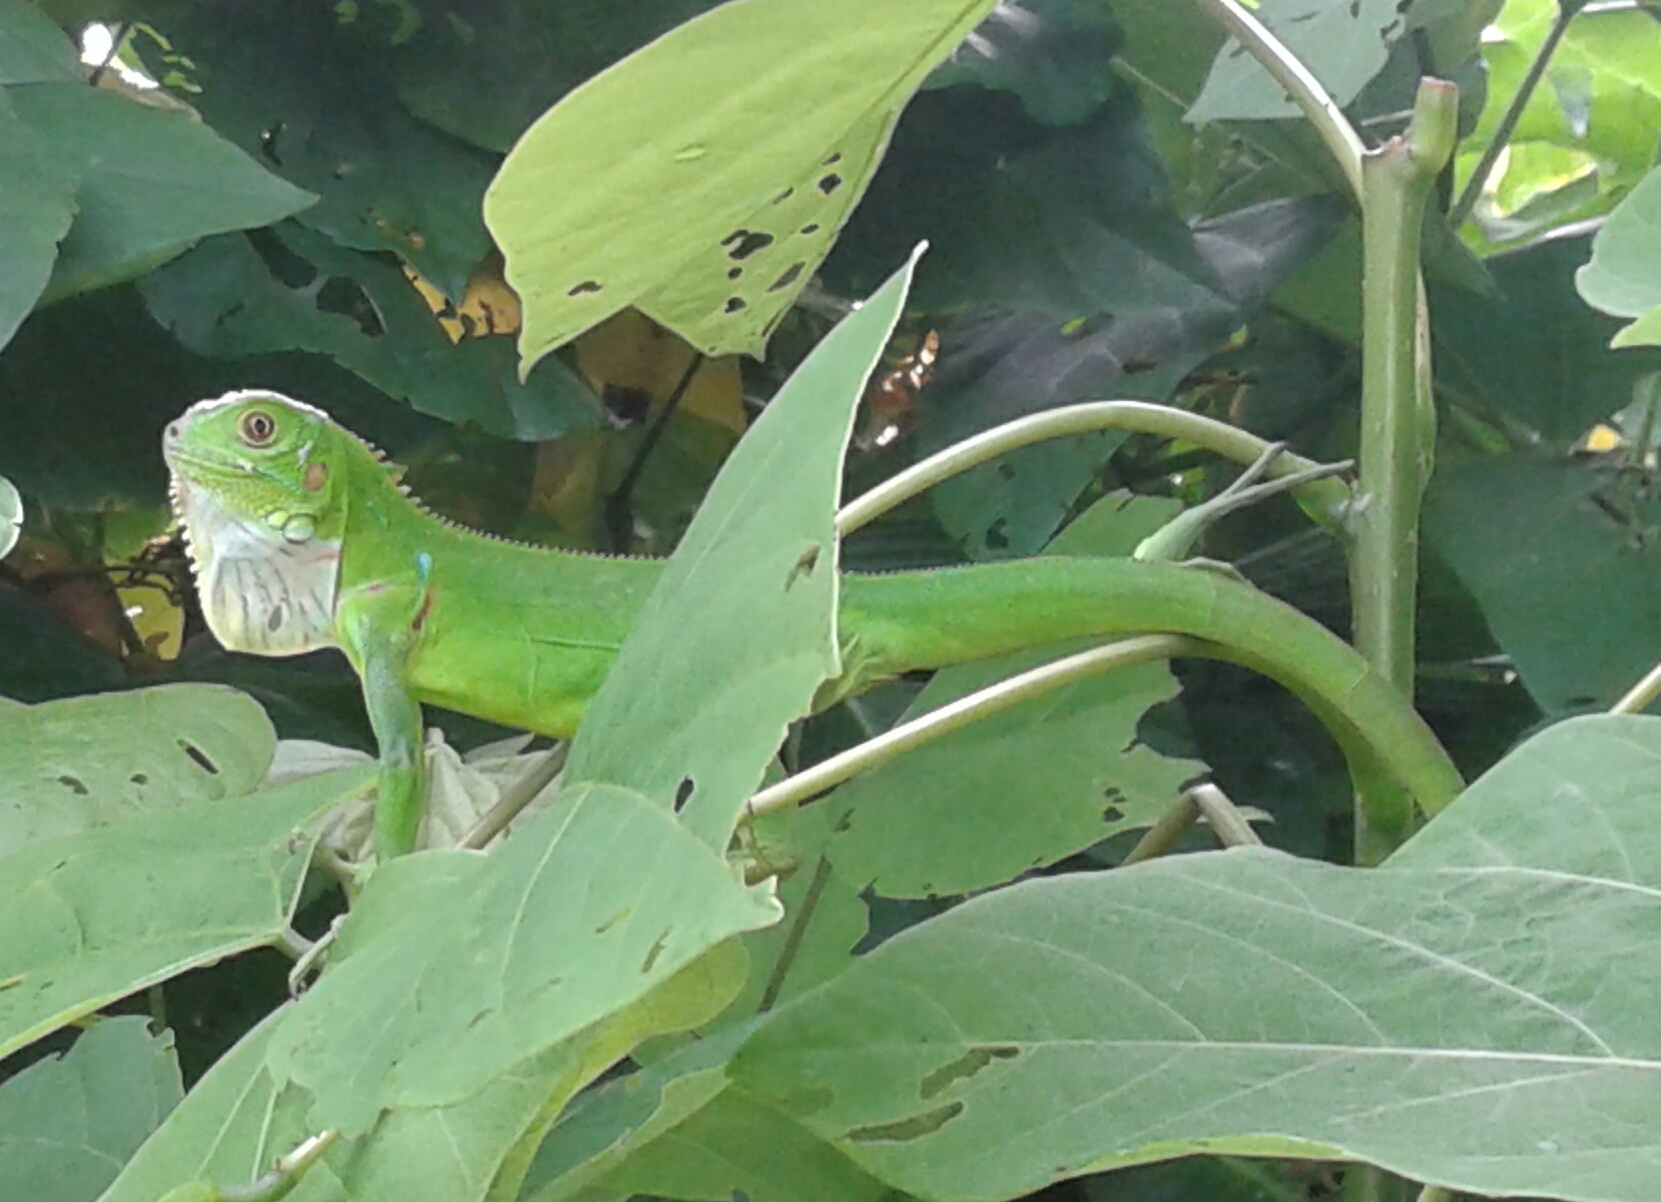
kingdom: Animalia
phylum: Chordata
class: Squamata
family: Iguanidae
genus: Iguana
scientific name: Iguana iguana
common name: Green iguana
